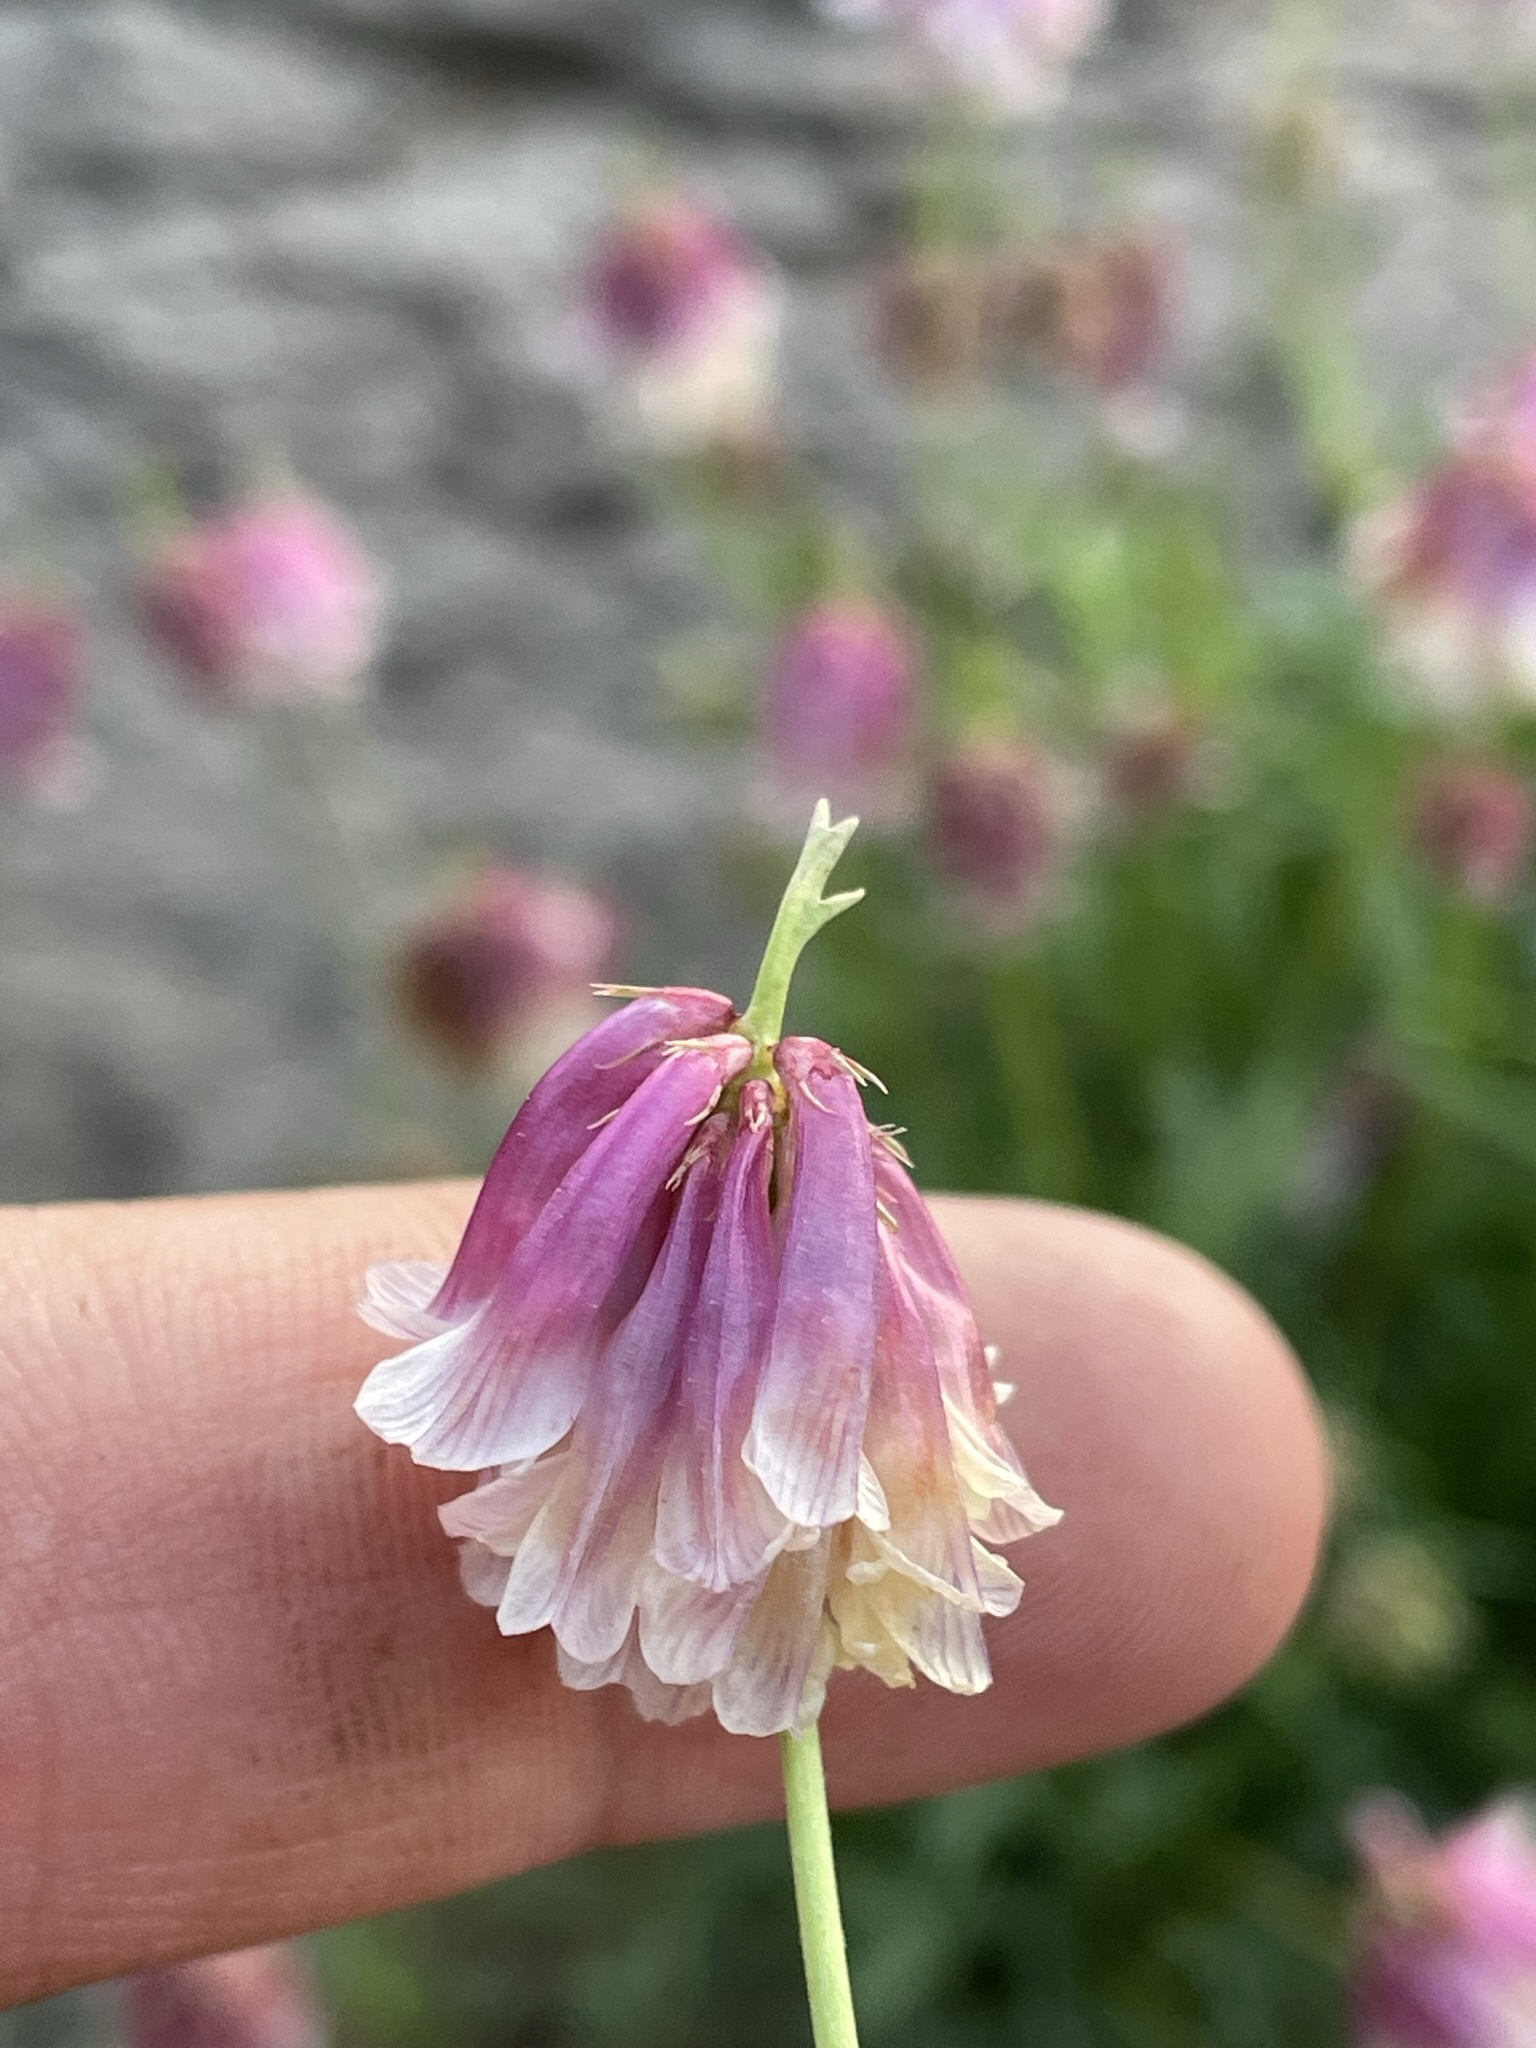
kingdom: Plantae
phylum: Tracheophyta
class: Magnoliopsida
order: Fabales
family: Fabaceae
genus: Trifolium
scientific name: Trifolium productum
